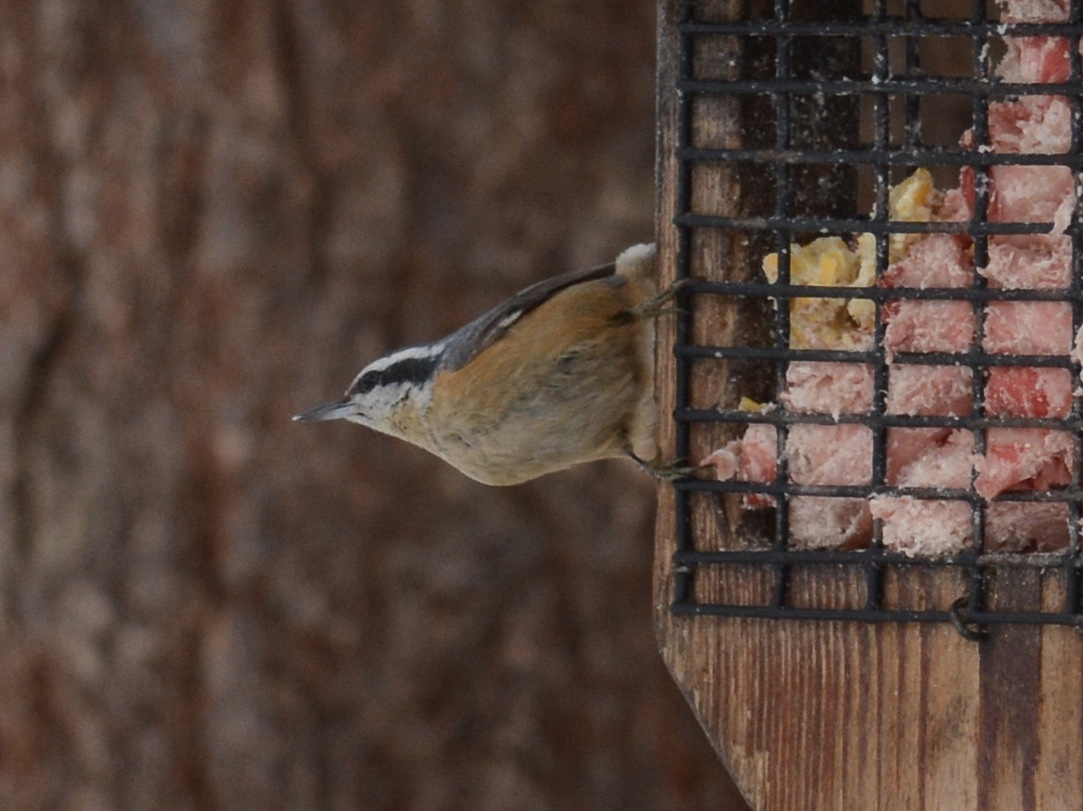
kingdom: Animalia
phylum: Chordata
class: Aves
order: Passeriformes
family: Sittidae
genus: Sitta
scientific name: Sitta canadensis
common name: Red-breasted nuthatch
